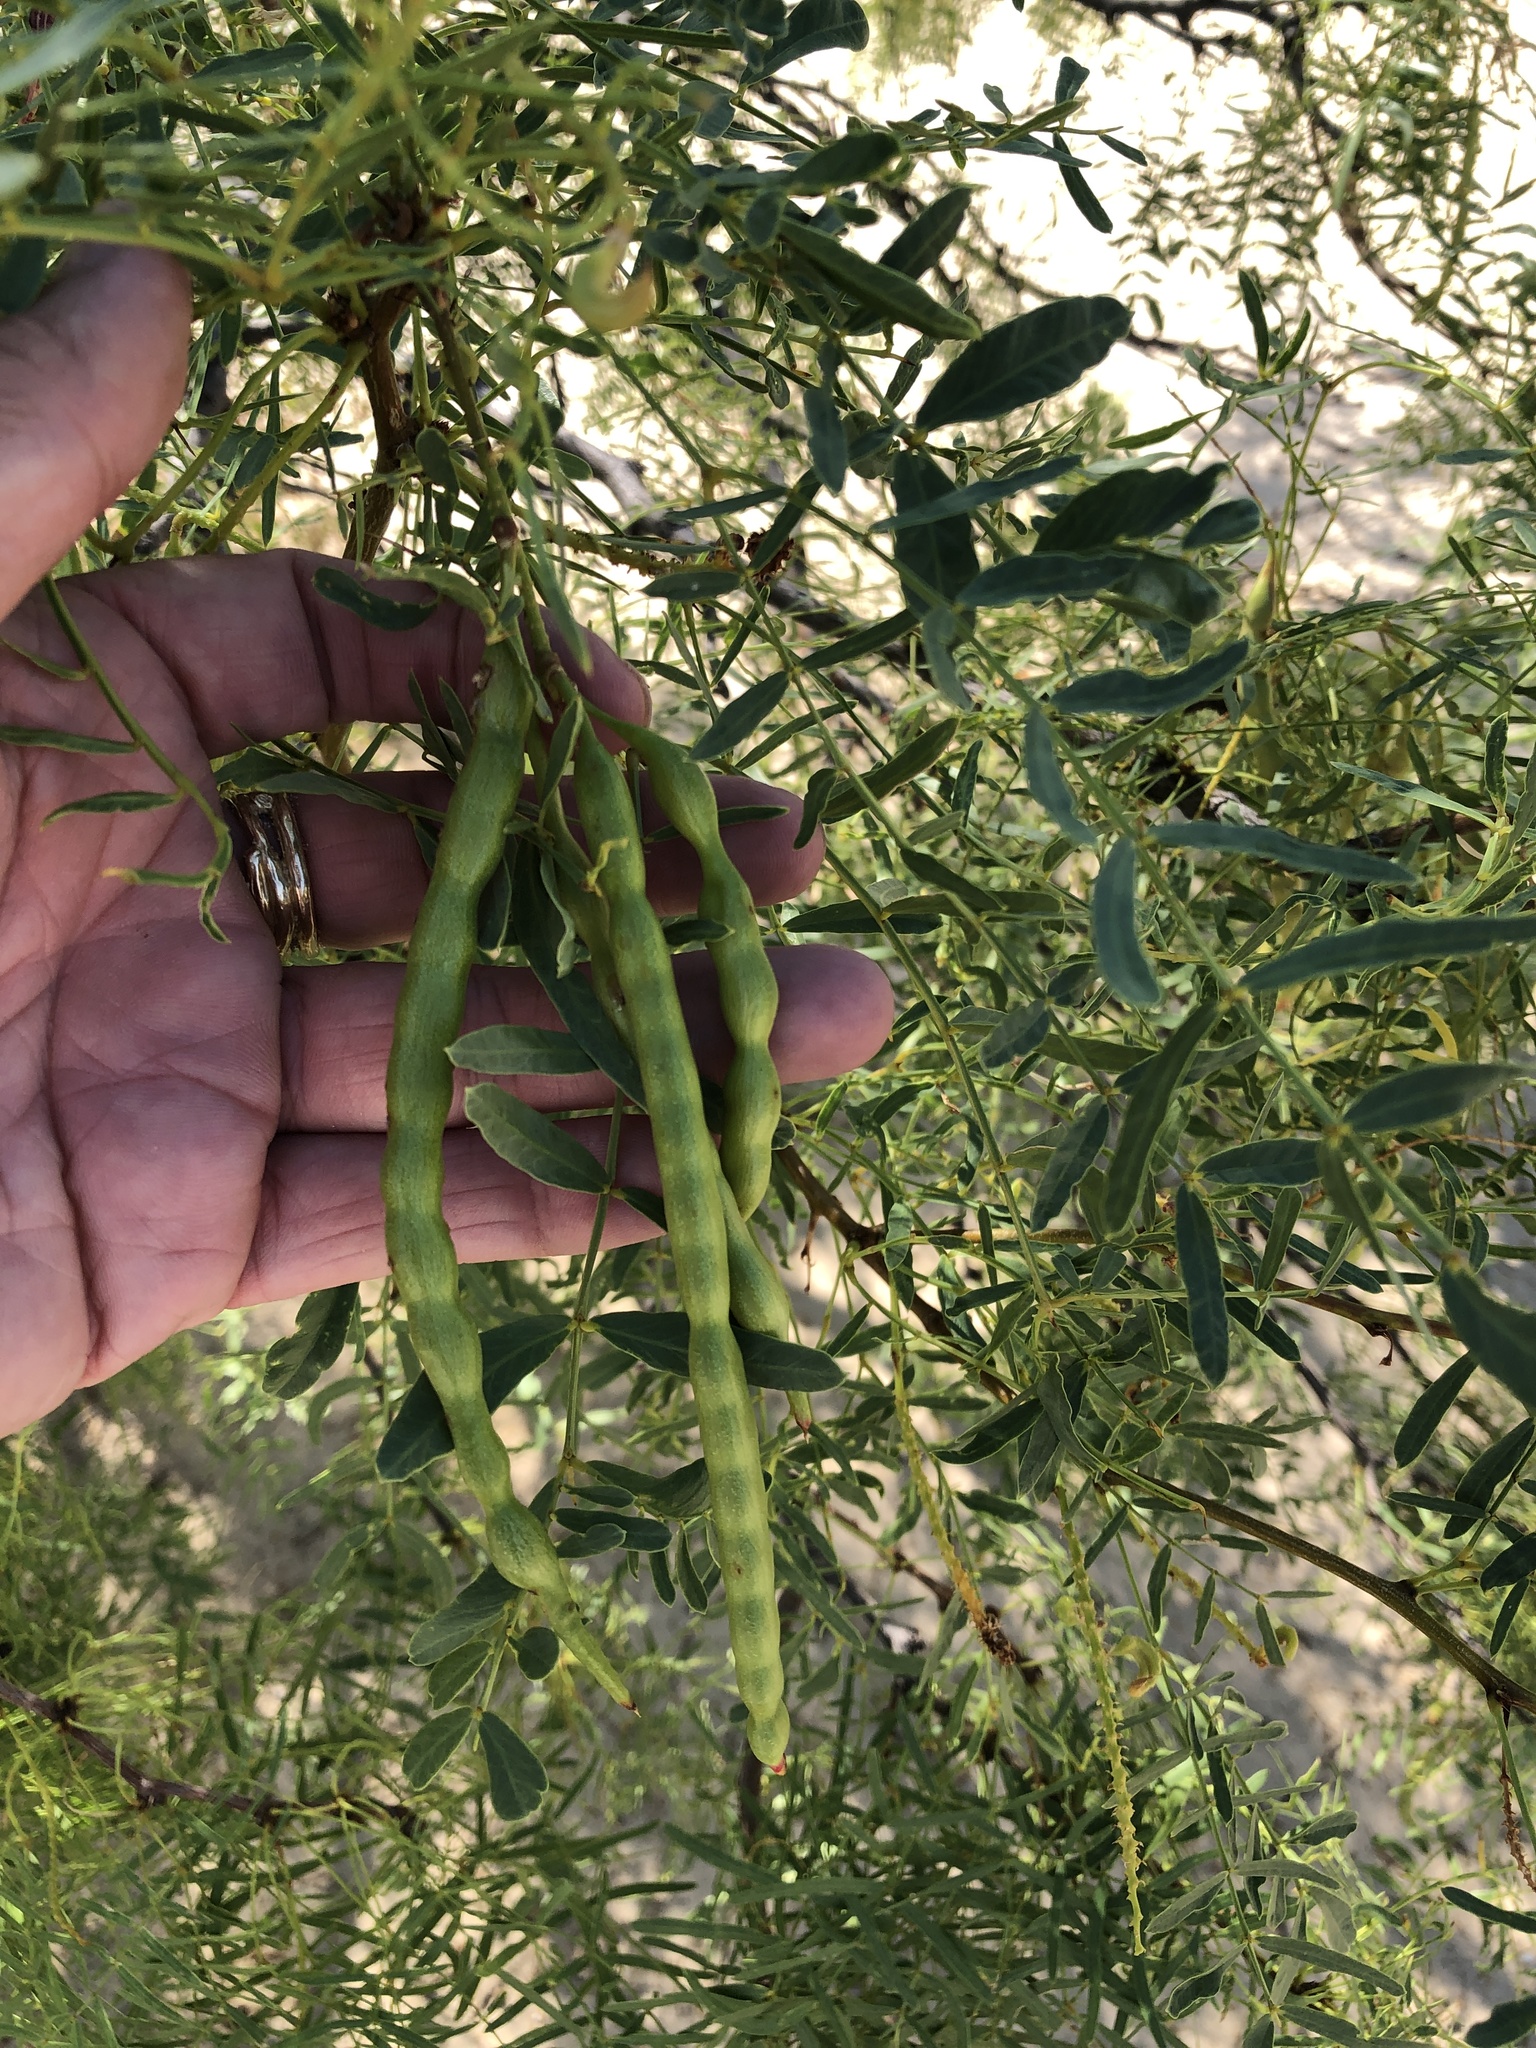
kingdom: Plantae
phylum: Tracheophyta
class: Magnoliopsida
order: Fabales
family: Fabaceae
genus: Prosopis
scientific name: Prosopis glandulosa
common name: Honey mesquite
